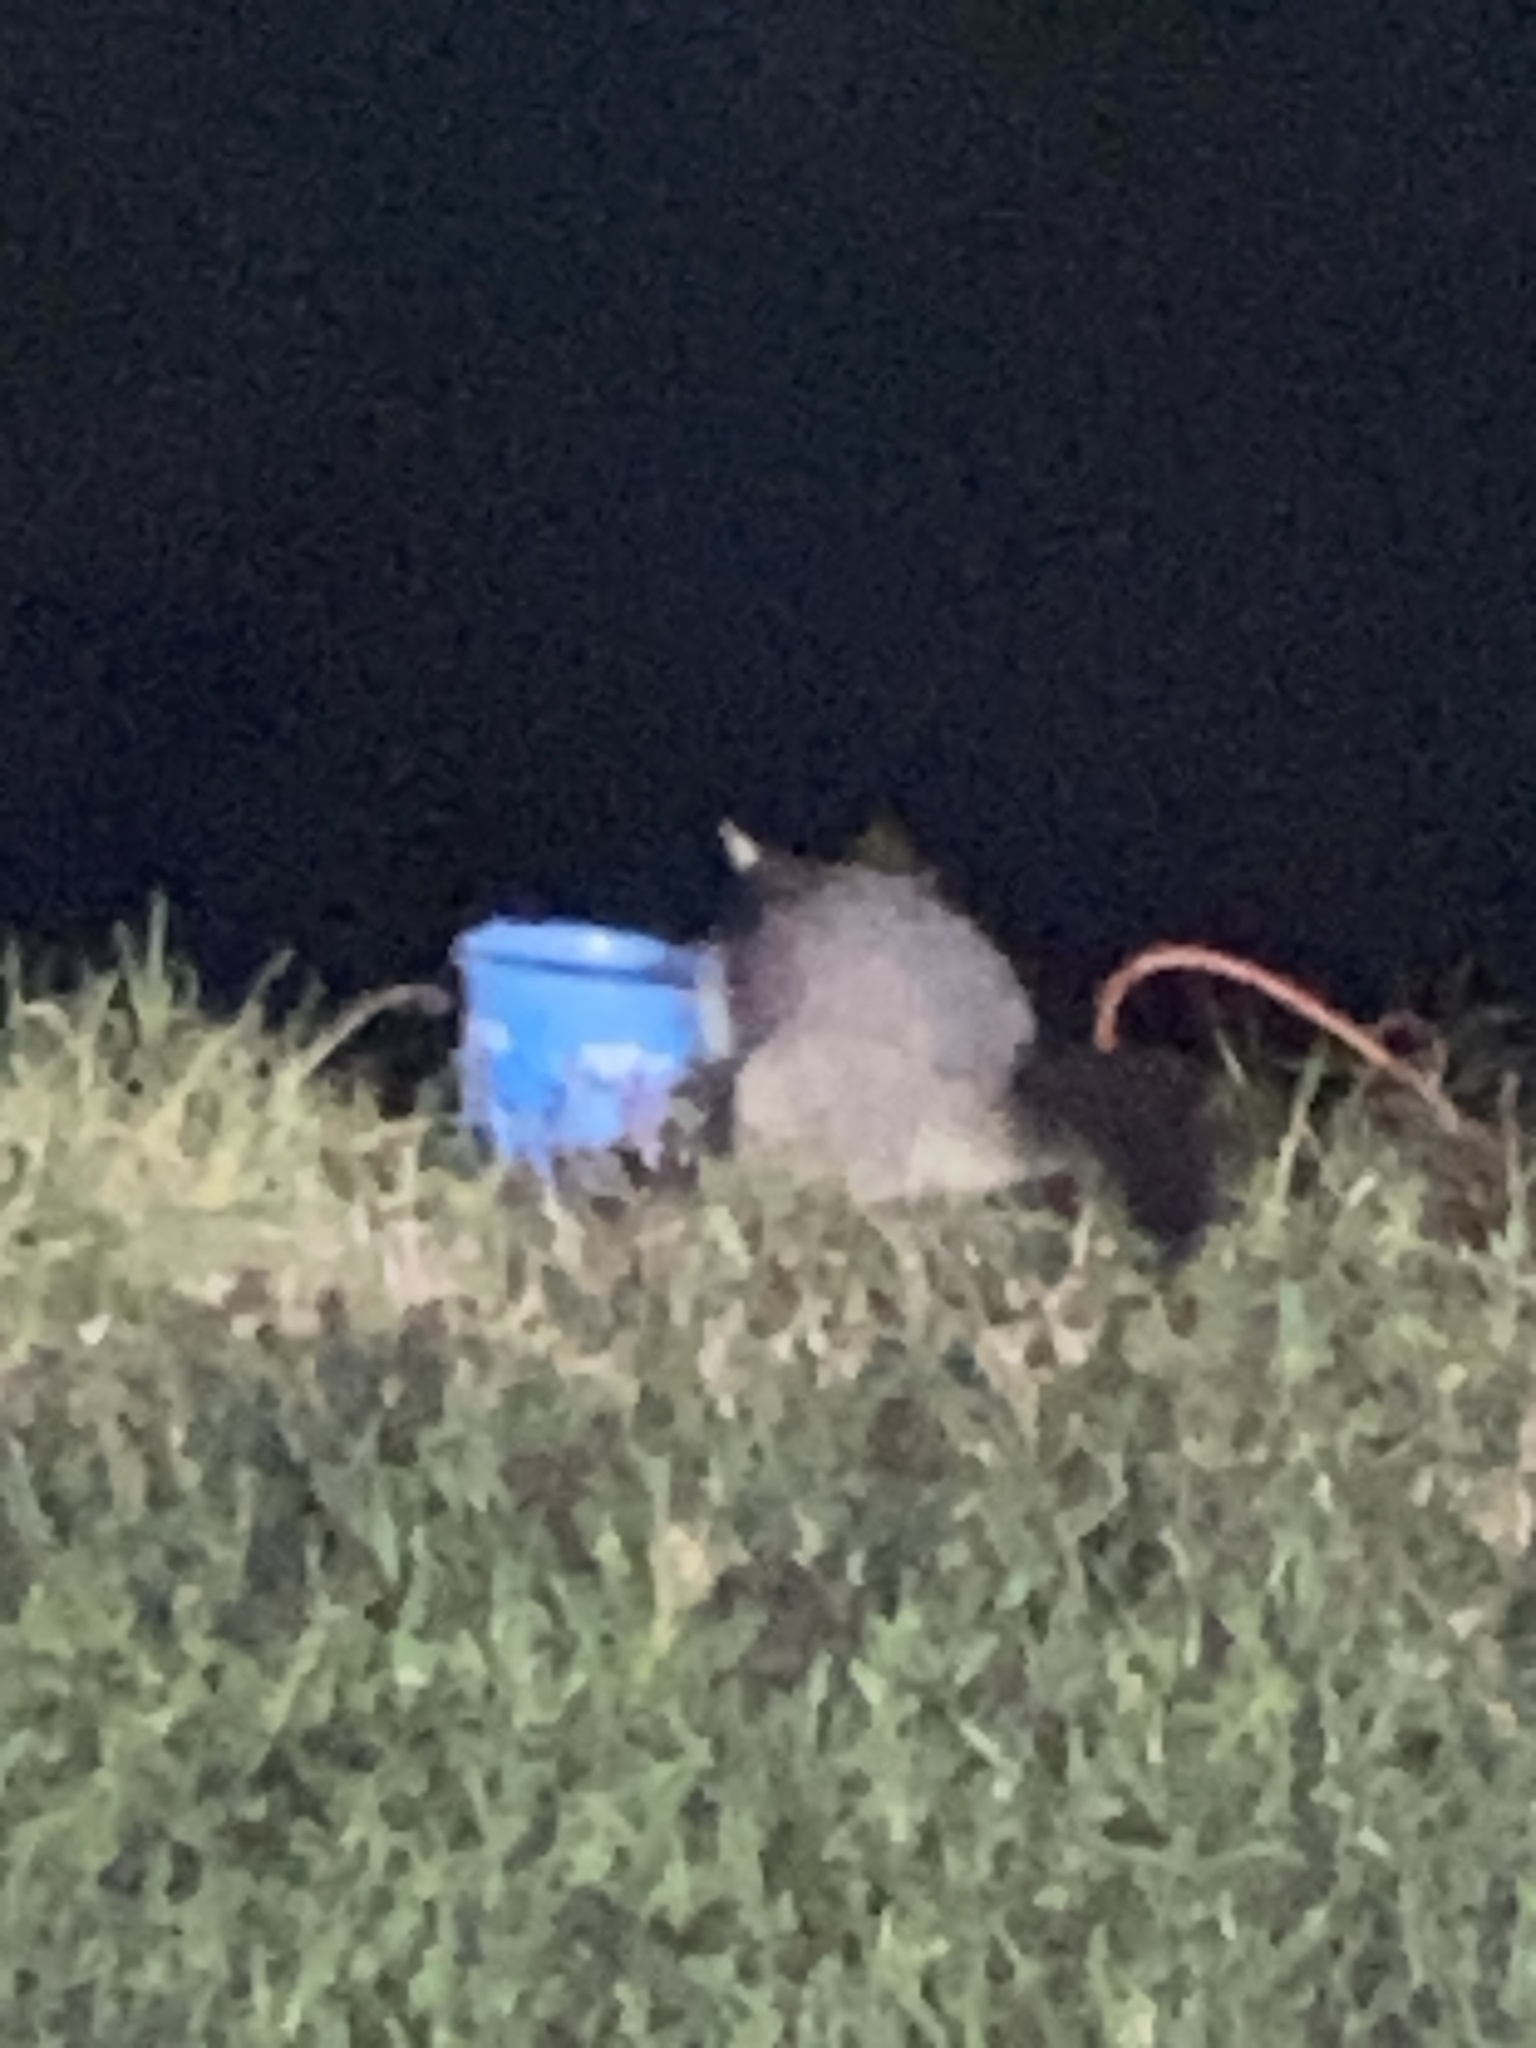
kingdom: Animalia
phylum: Chordata
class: Mammalia
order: Diprotodontia
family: Phalangeridae
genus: Trichosurus
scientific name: Trichosurus vulpecula
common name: Common brushtail
